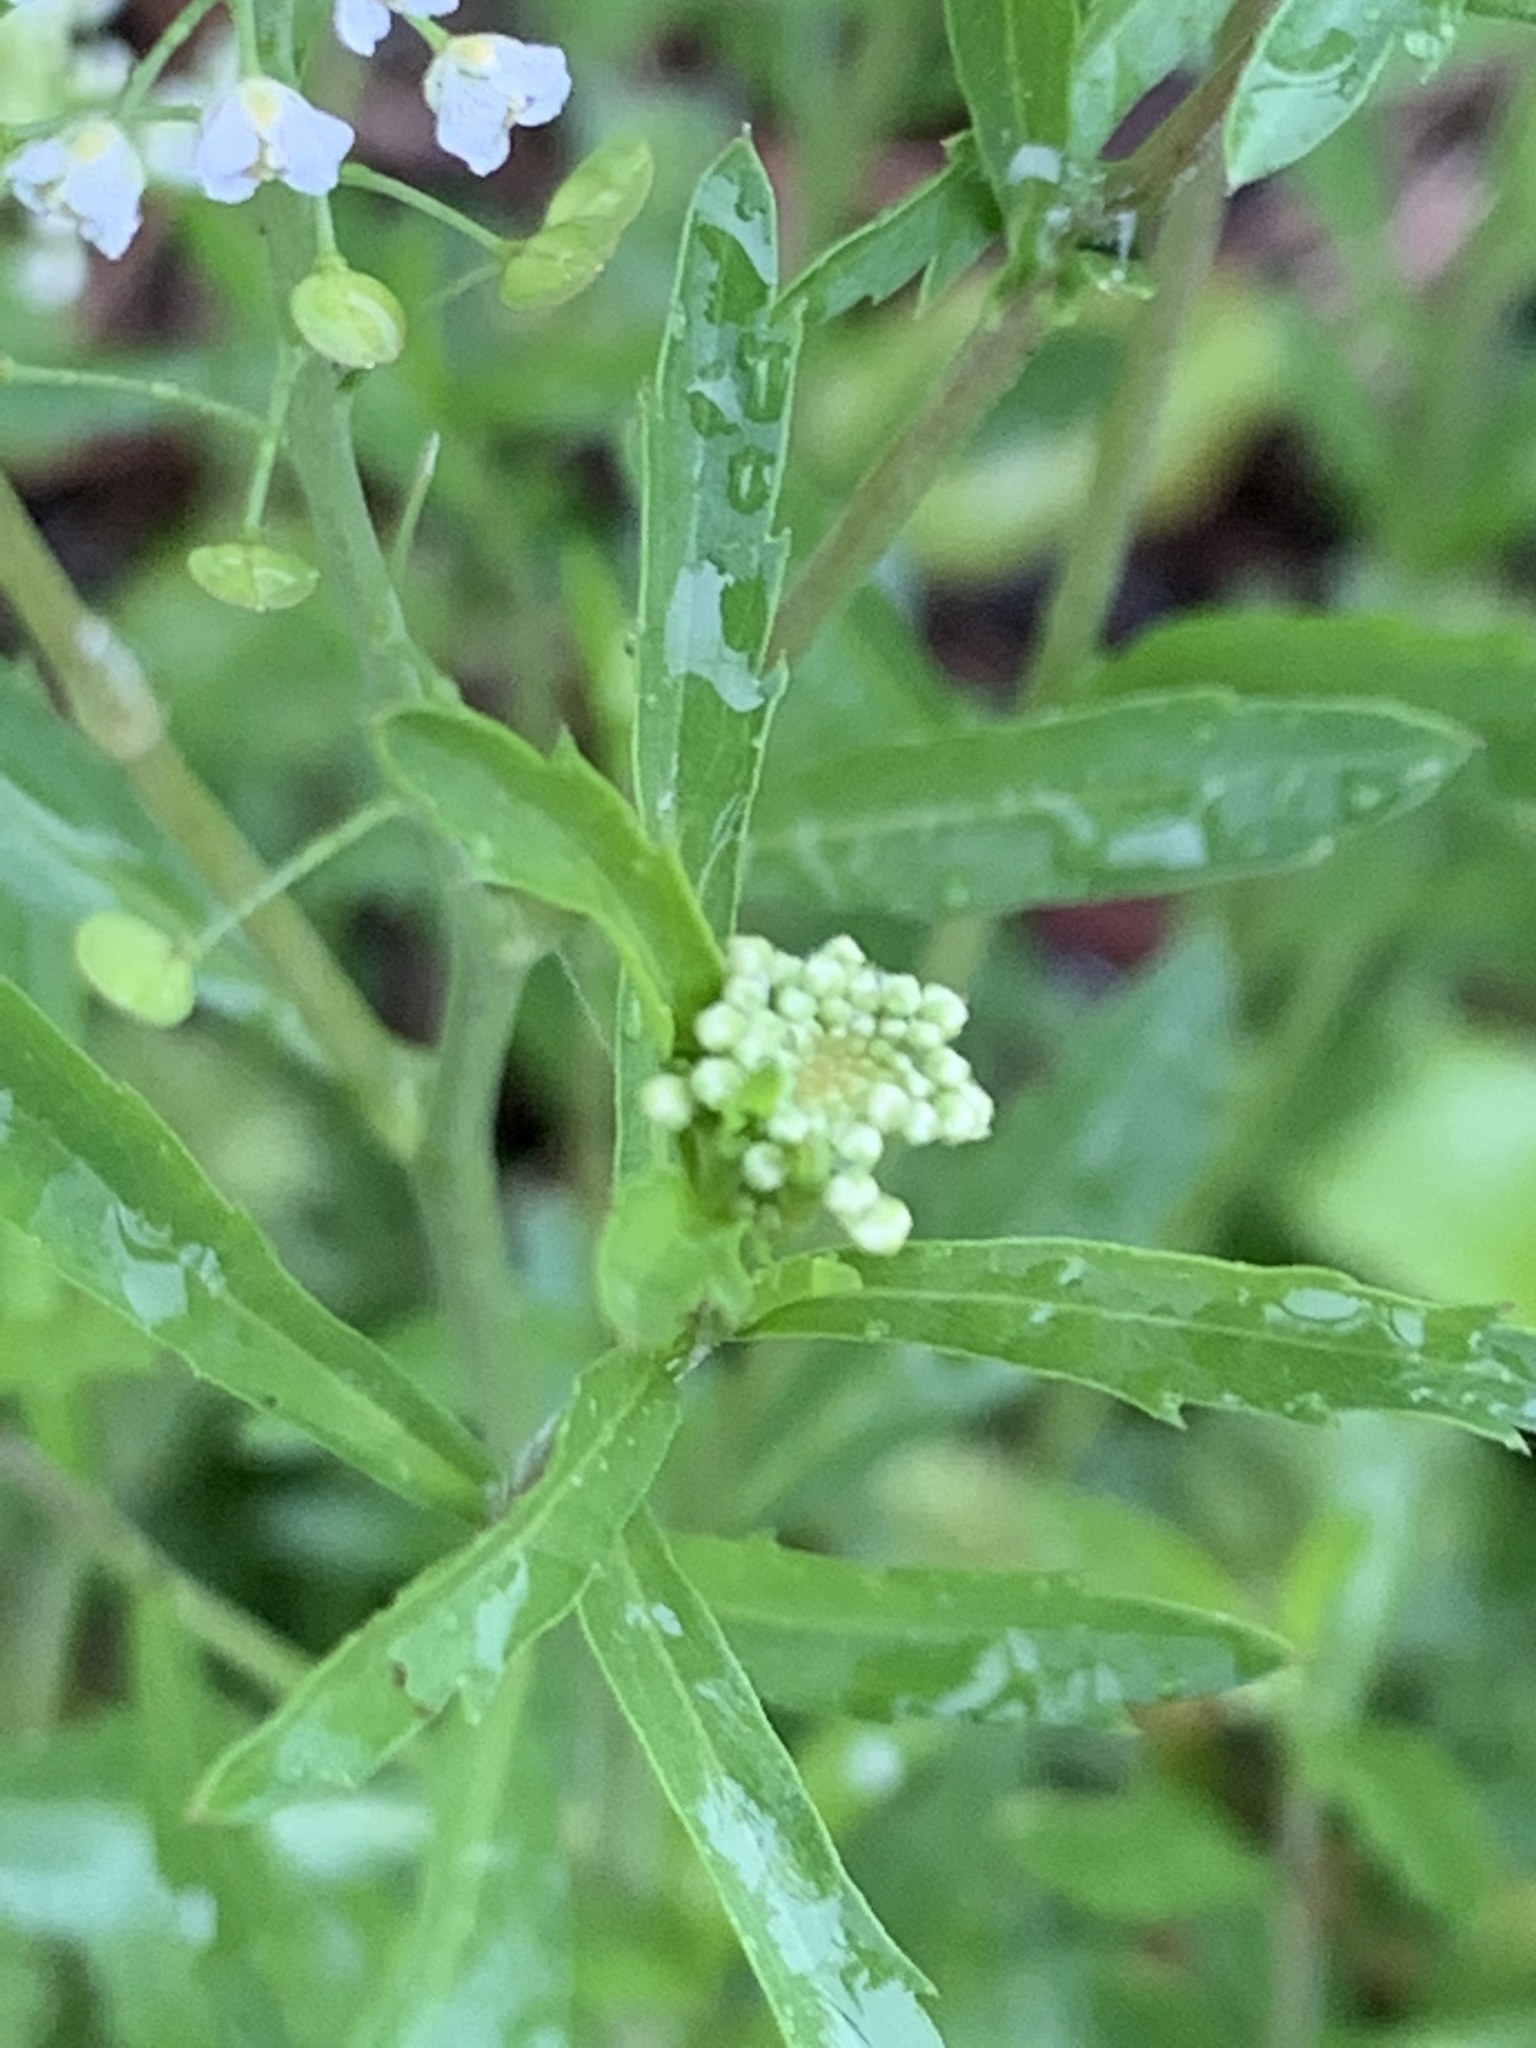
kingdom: Plantae
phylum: Tracheophyta
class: Magnoliopsida
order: Brassicales
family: Brassicaceae
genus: Lepidium
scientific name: Lepidium virginicum
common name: Least pepperwort
